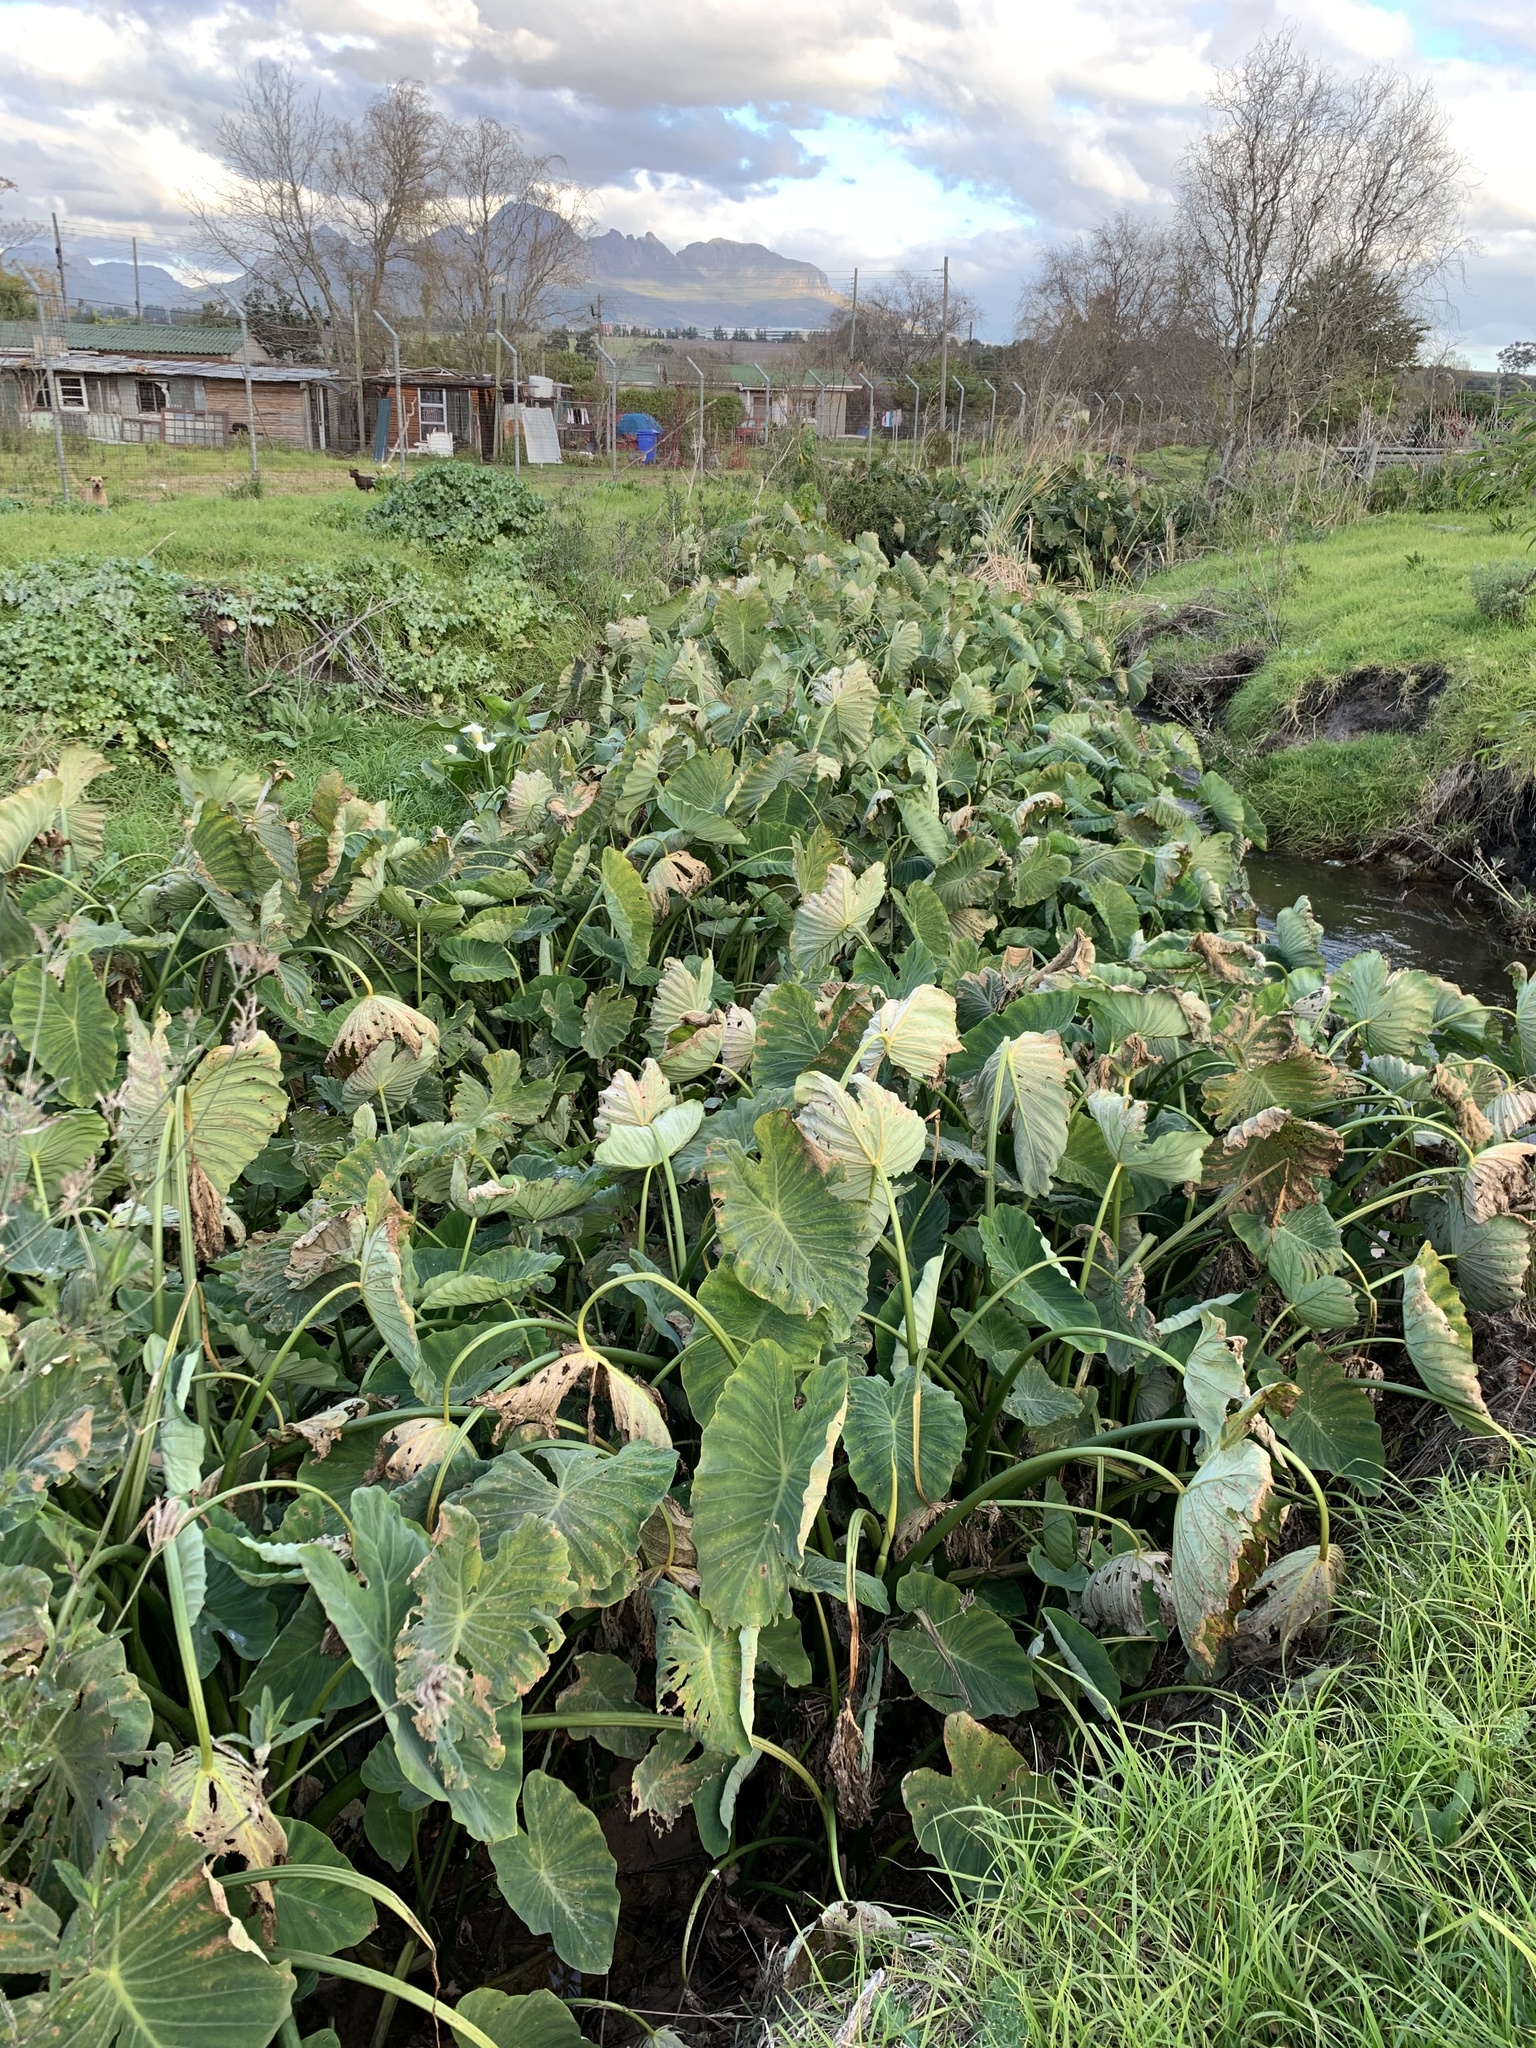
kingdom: Plantae
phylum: Tracheophyta
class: Liliopsida
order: Alismatales
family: Araceae
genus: Colocasia
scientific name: Colocasia esculenta
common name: Taro
